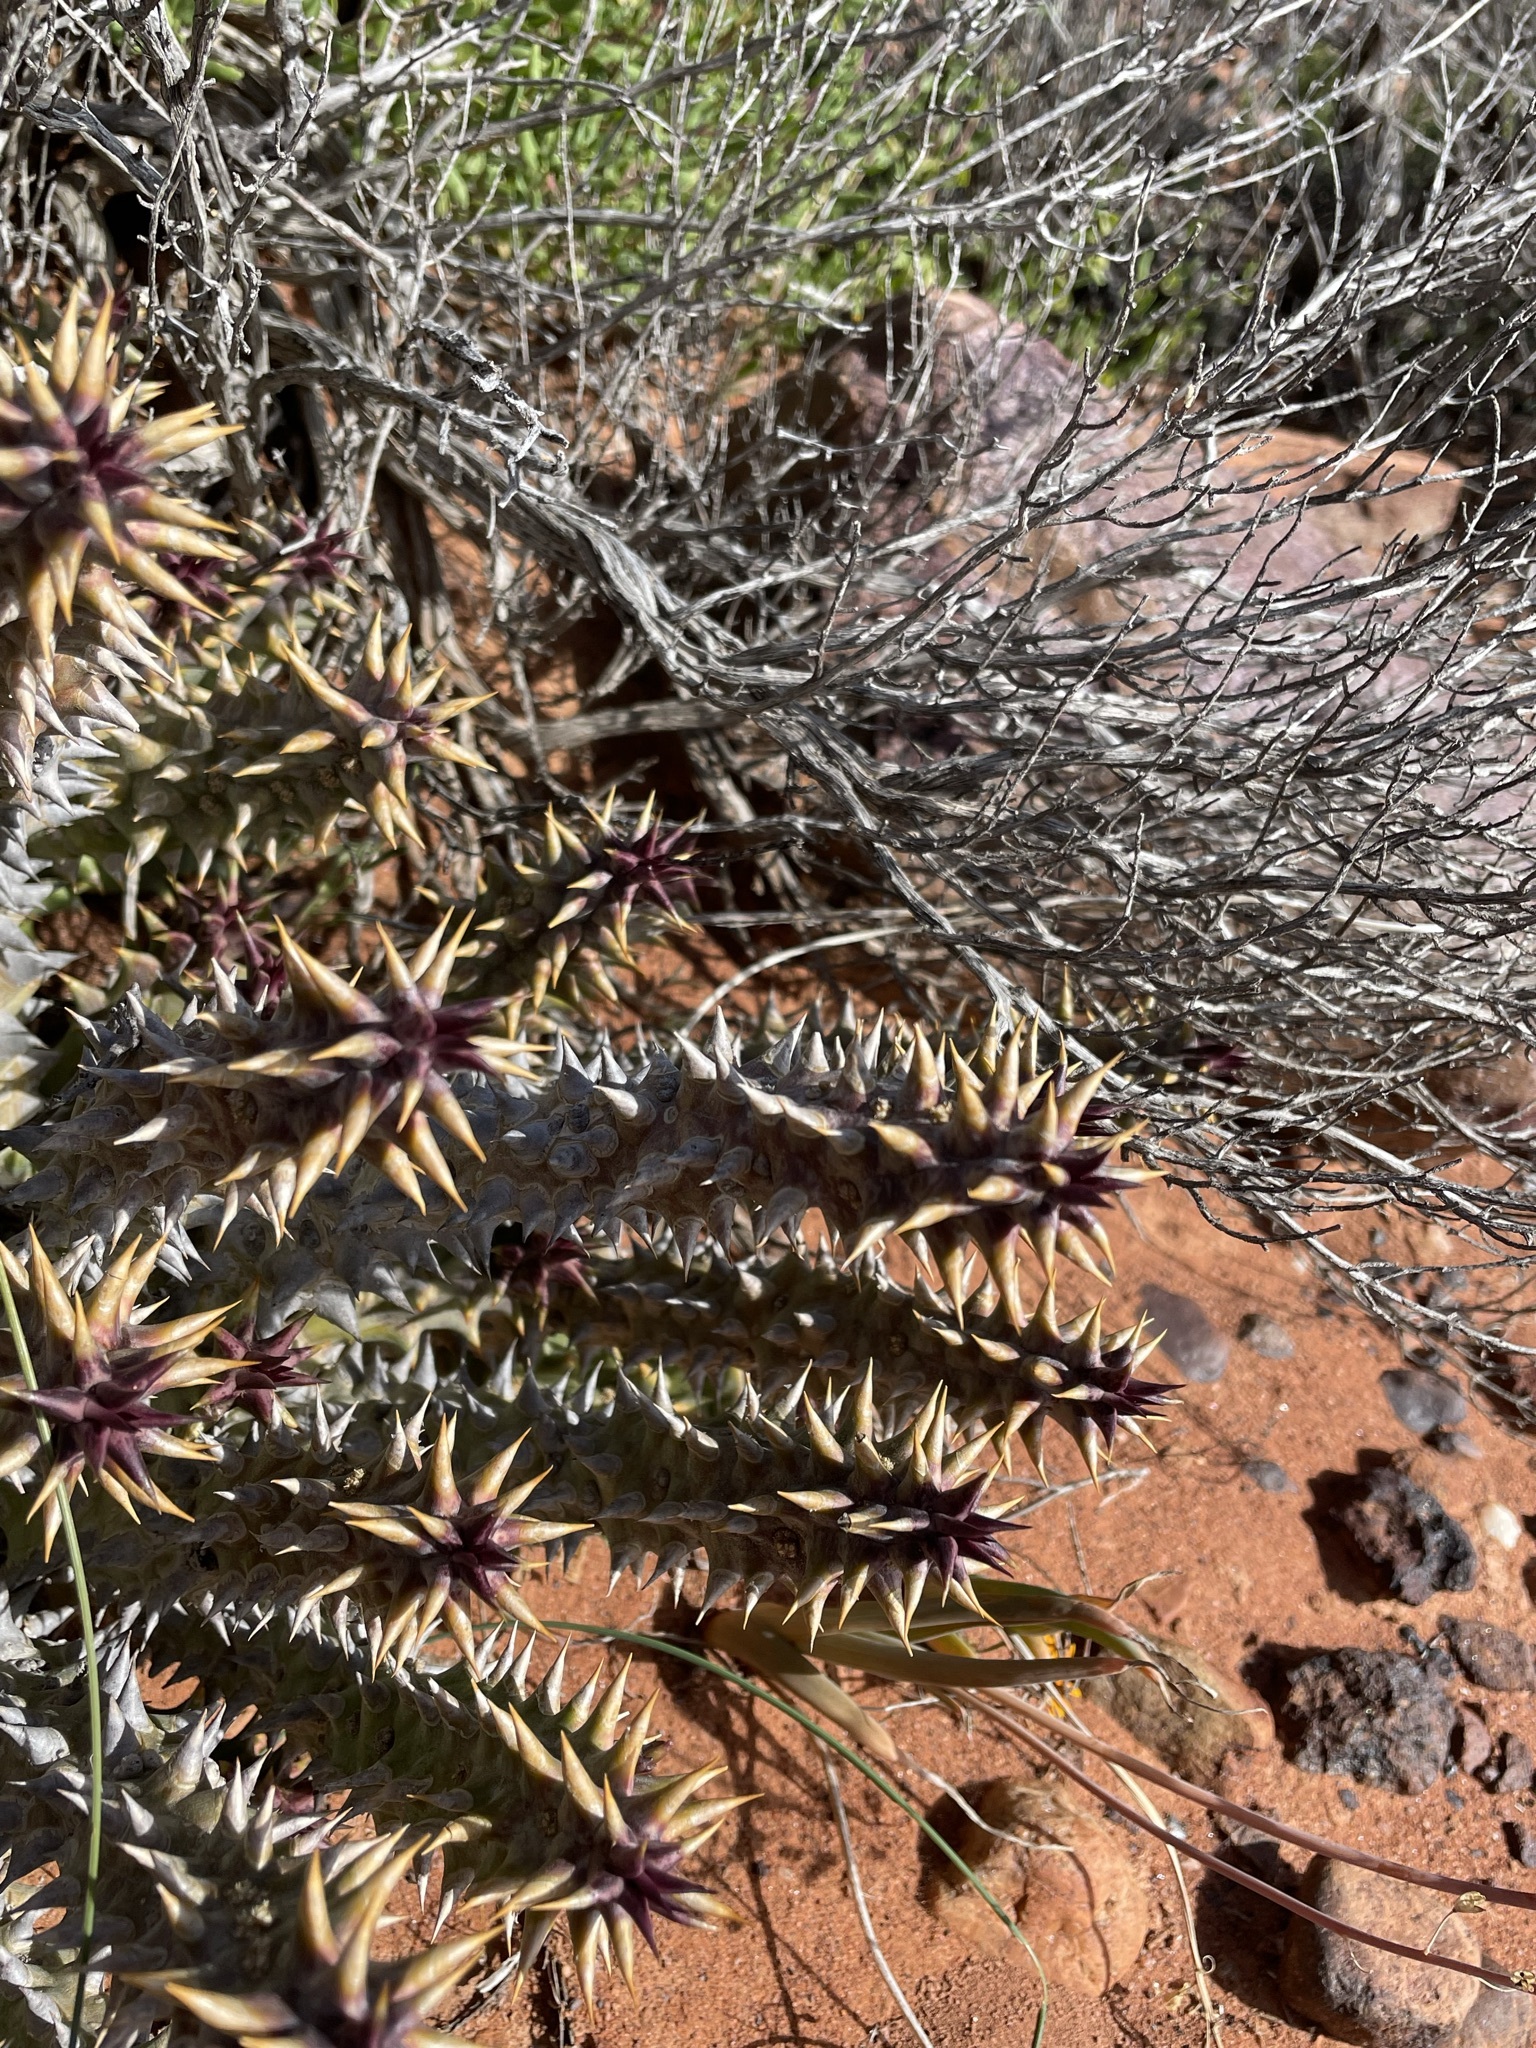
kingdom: Plantae
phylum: Tracheophyta
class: Magnoliopsida
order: Gentianales
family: Apocynaceae
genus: Ceropegia
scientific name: Ceropegia mammillaris
